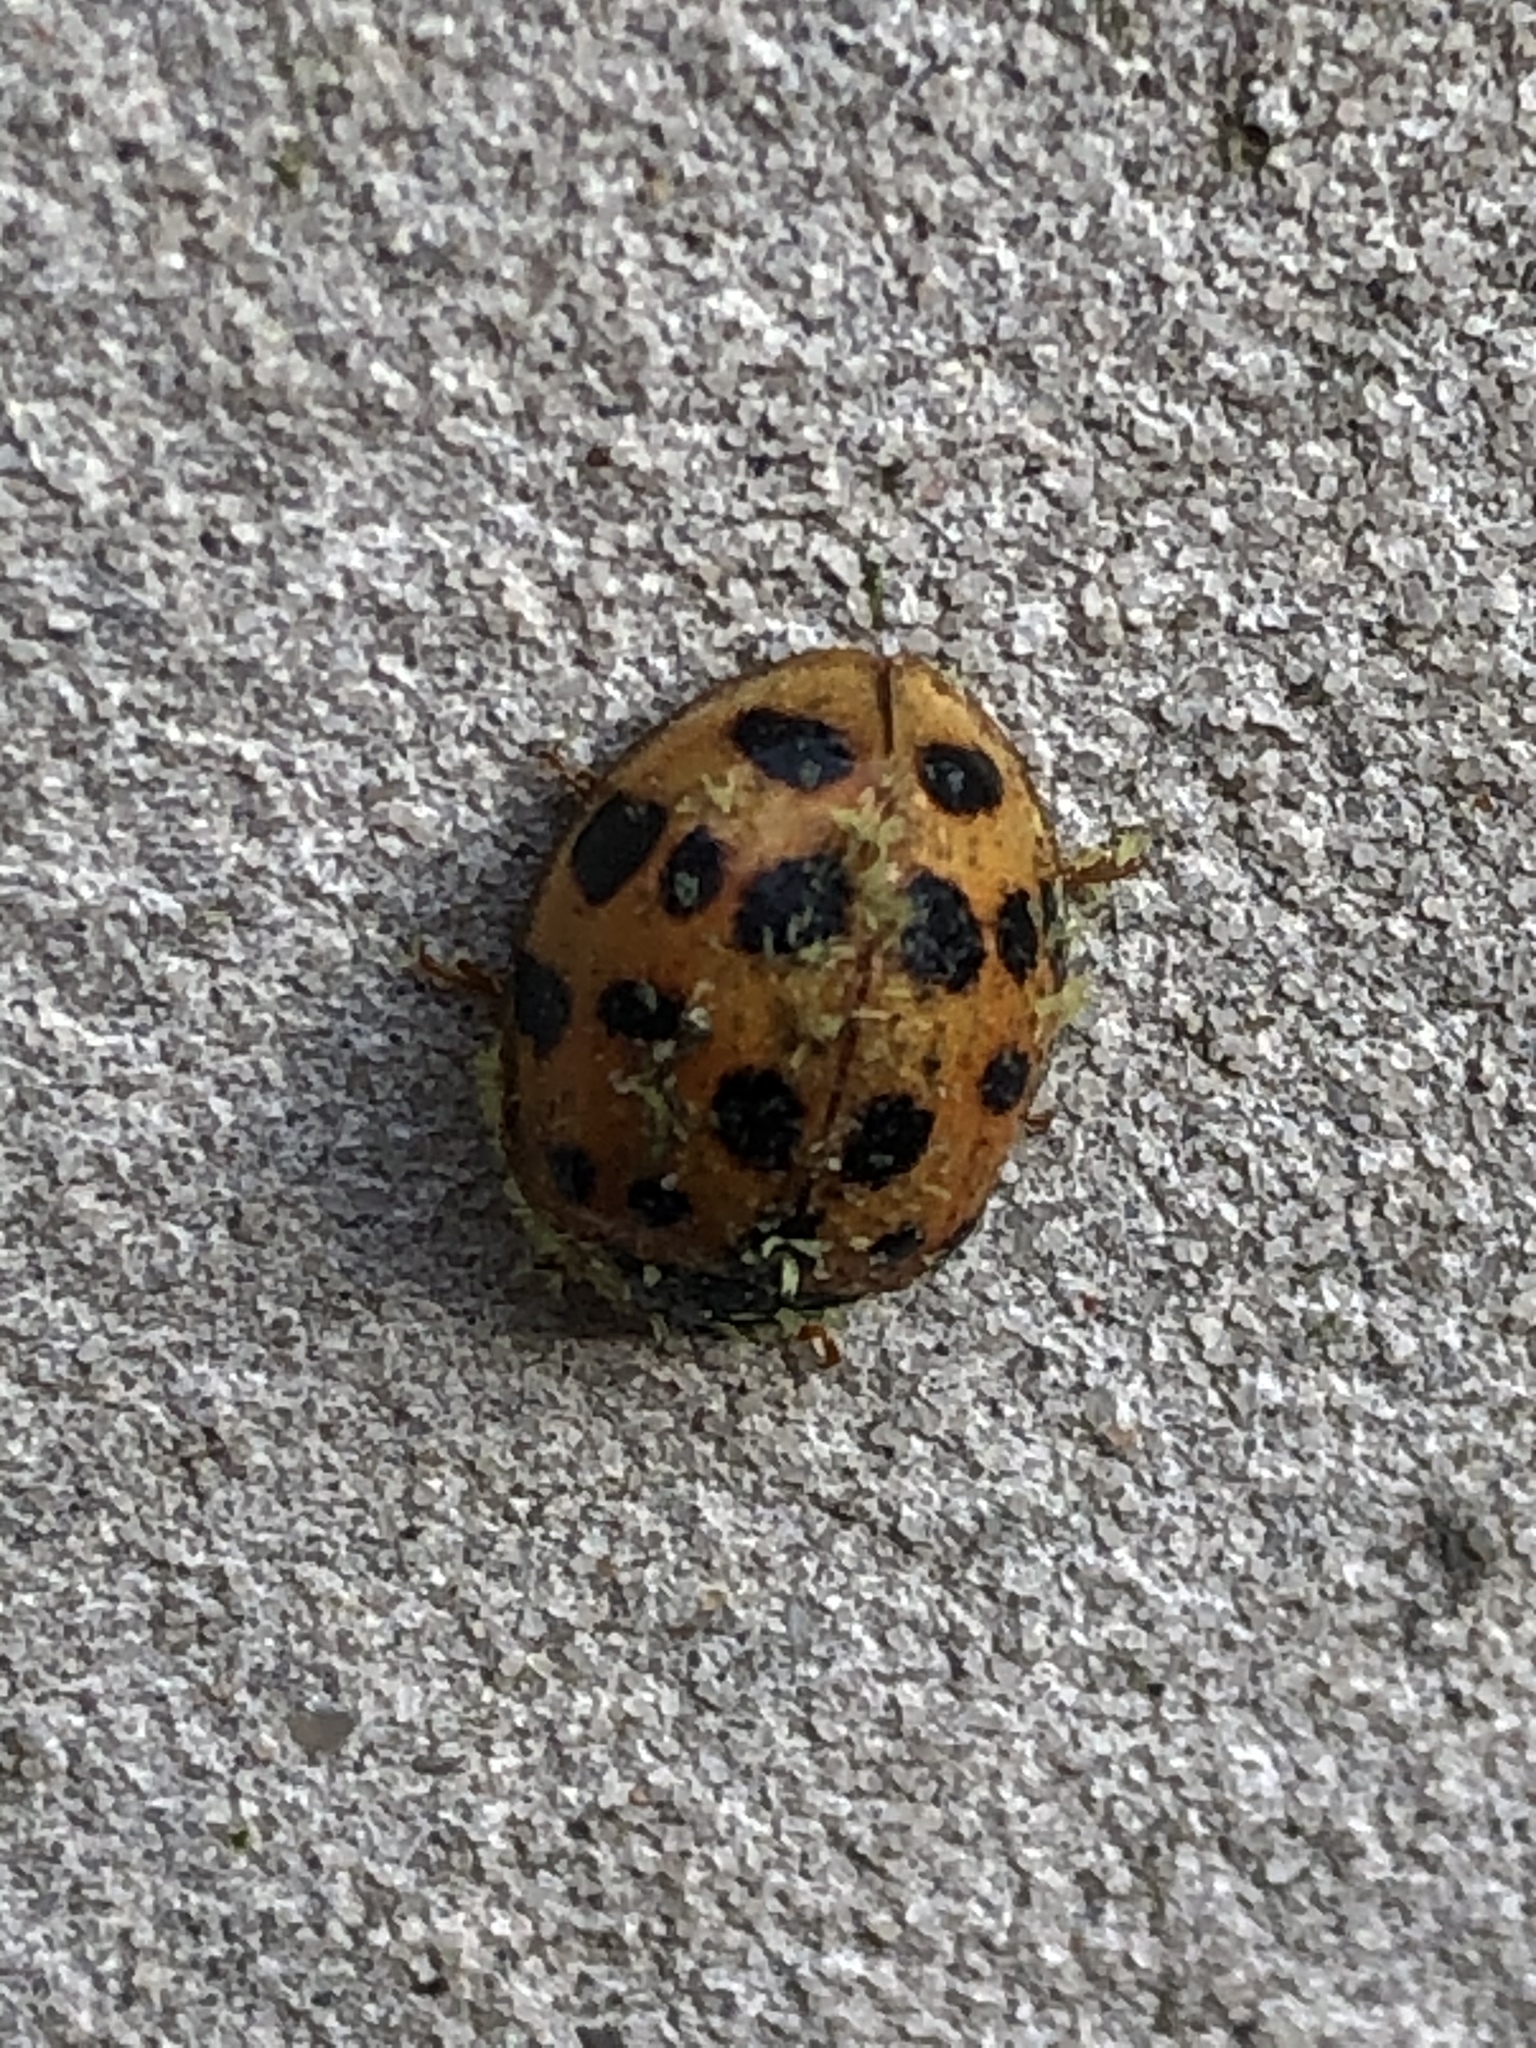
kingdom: Fungi
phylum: Ascomycota
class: Laboulbeniomycetes
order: Laboulbeniales
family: Laboulbeniaceae
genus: Hesperomyces
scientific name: Hesperomyces harmoniae
